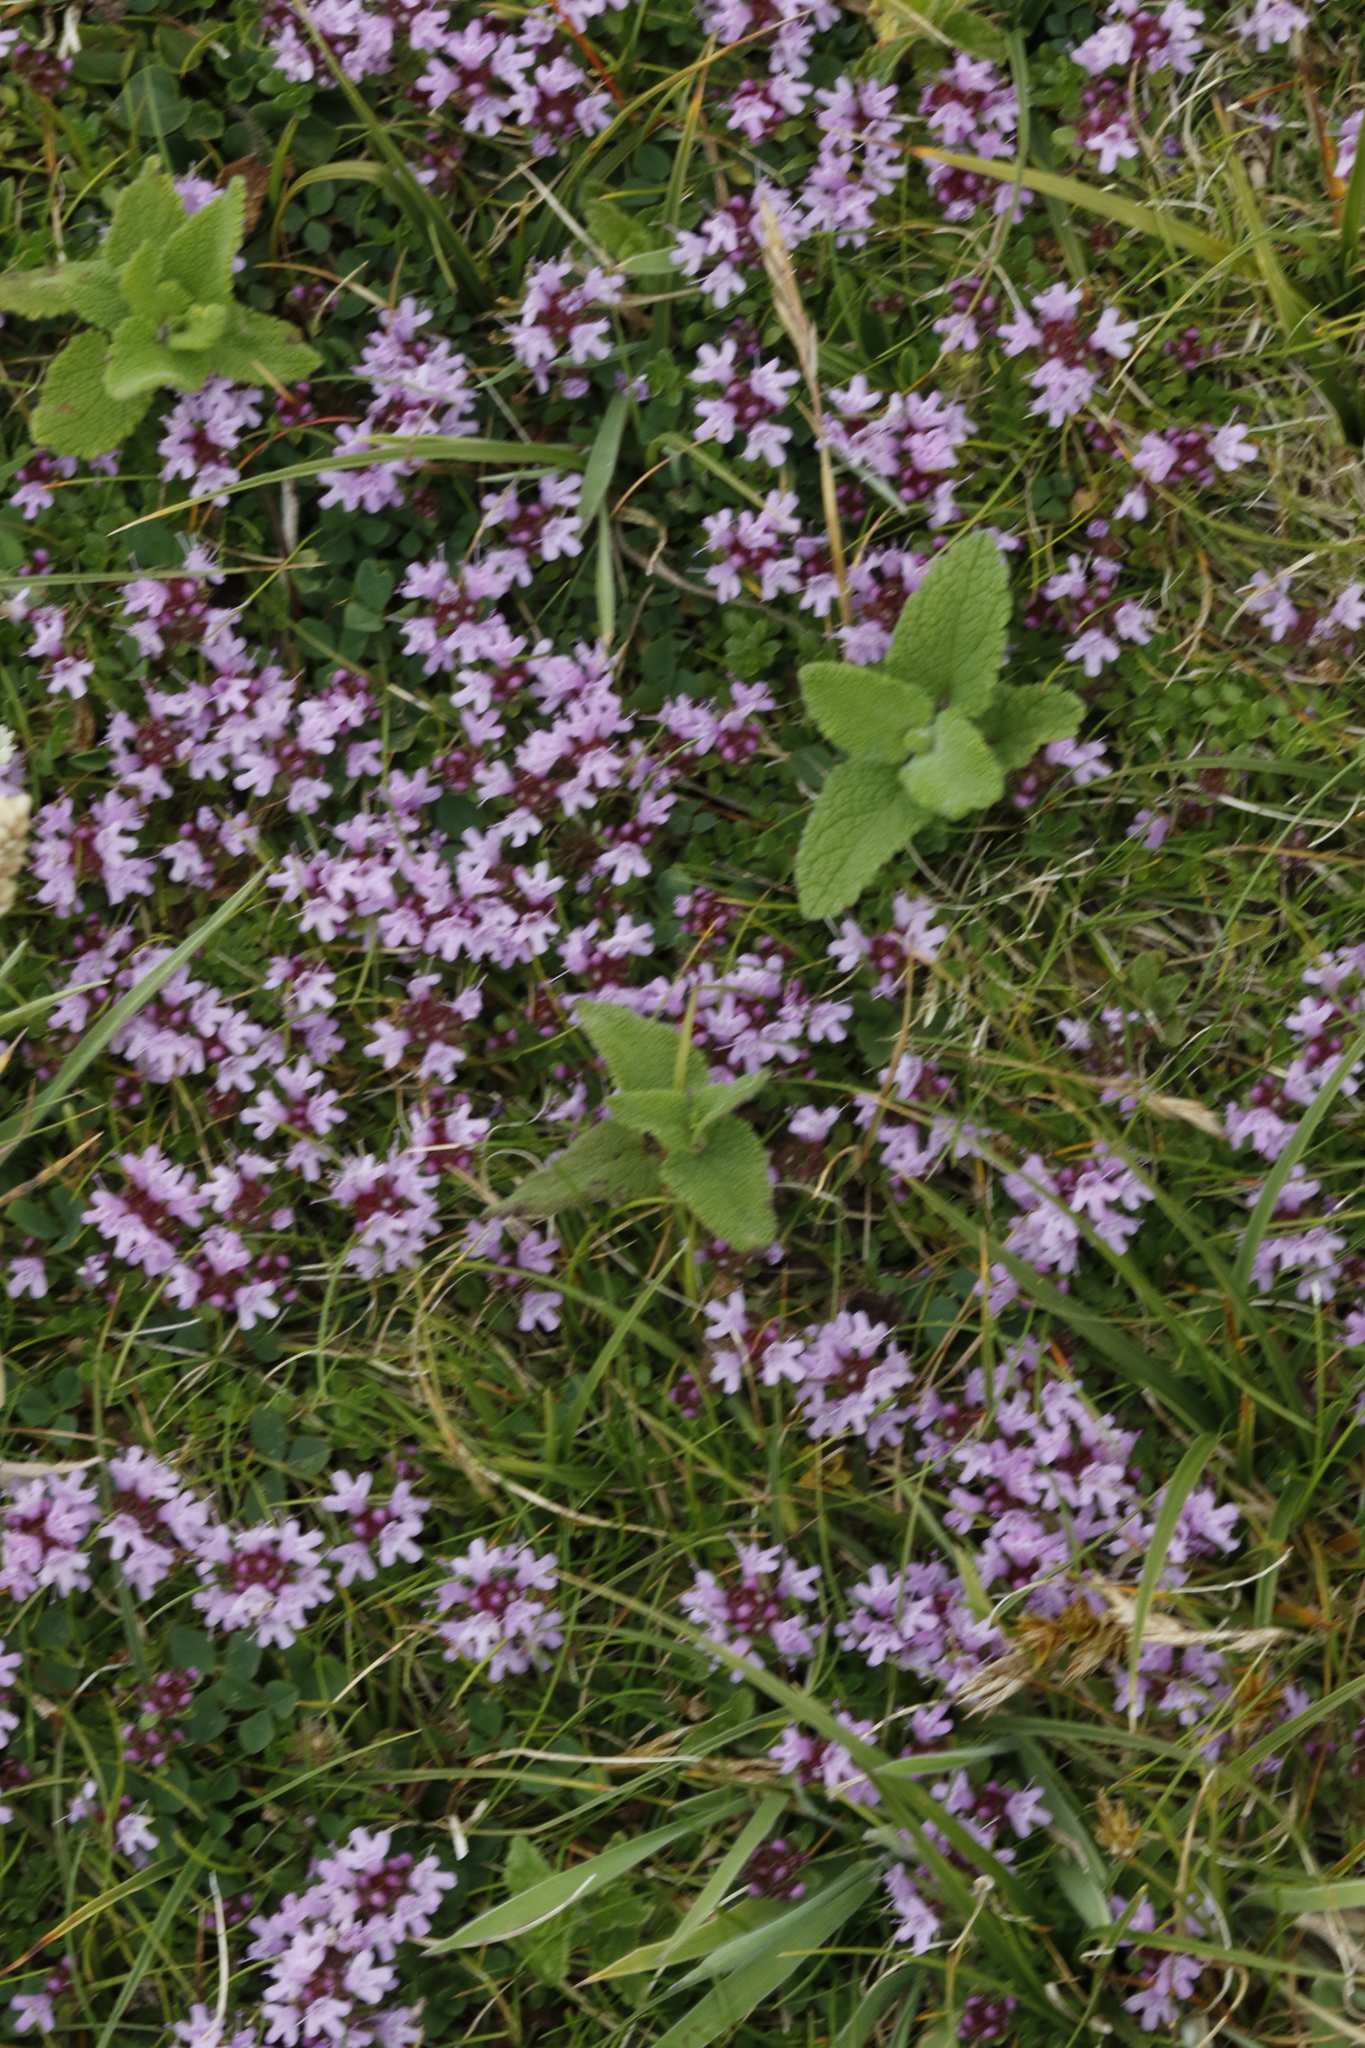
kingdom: Plantae
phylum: Tracheophyta
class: Magnoliopsida
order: Lamiales
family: Lamiaceae
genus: Thymus
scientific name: Thymus praecox
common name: Wild thyme
